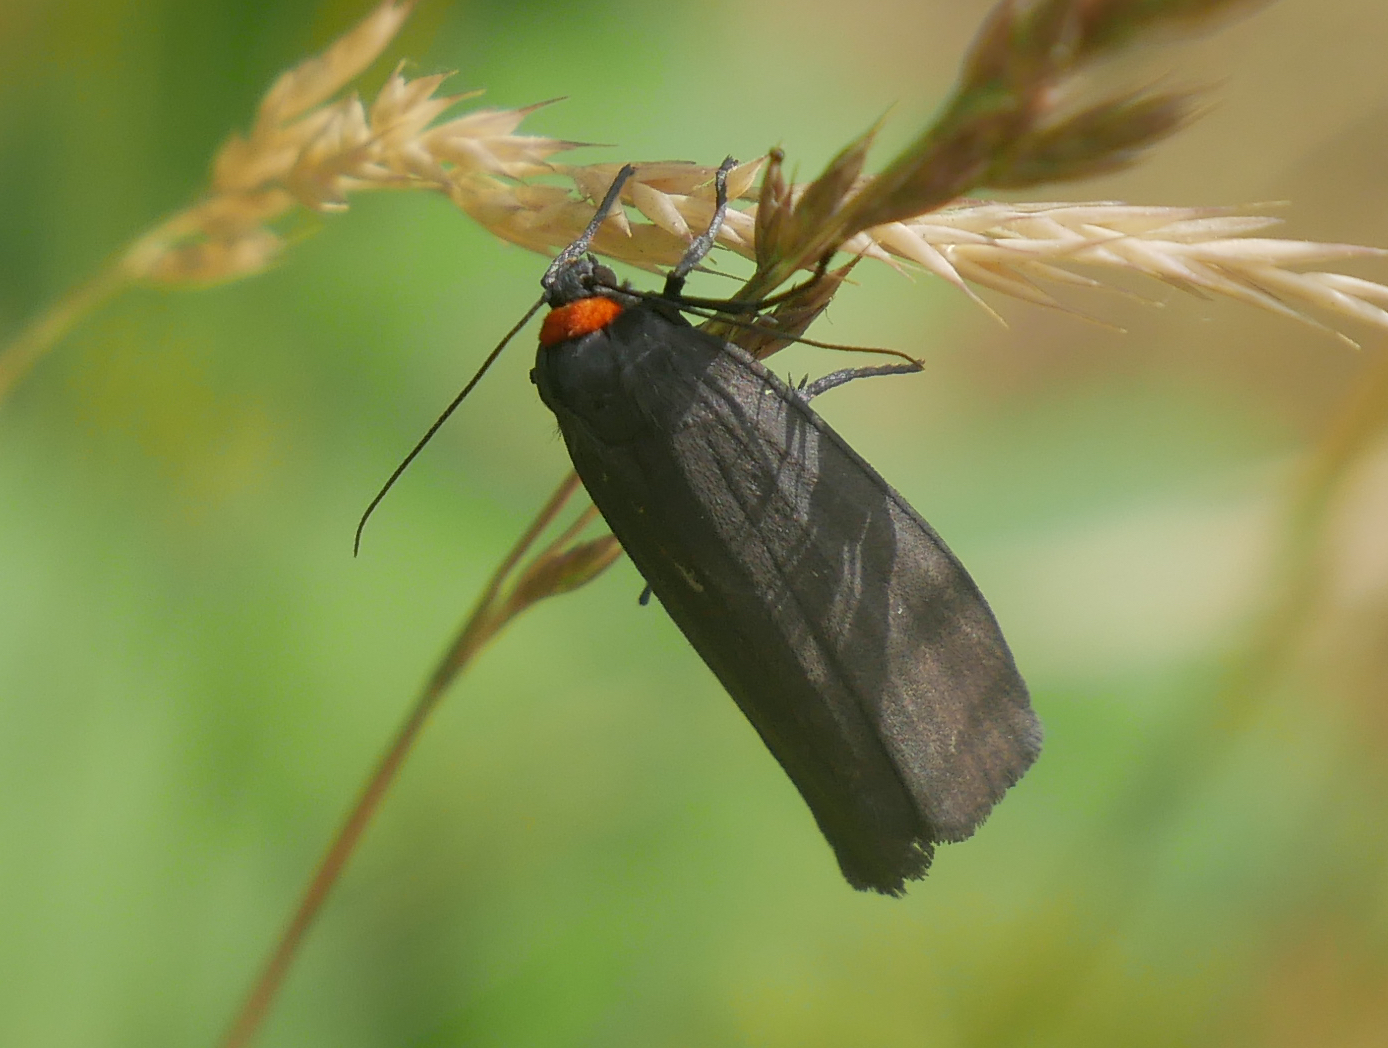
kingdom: Animalia
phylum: Arthropoda
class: Insecta
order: Lepidoptera
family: Erebidae
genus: Atolmis
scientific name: Atolmis rubricollis
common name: Red-necked footman
